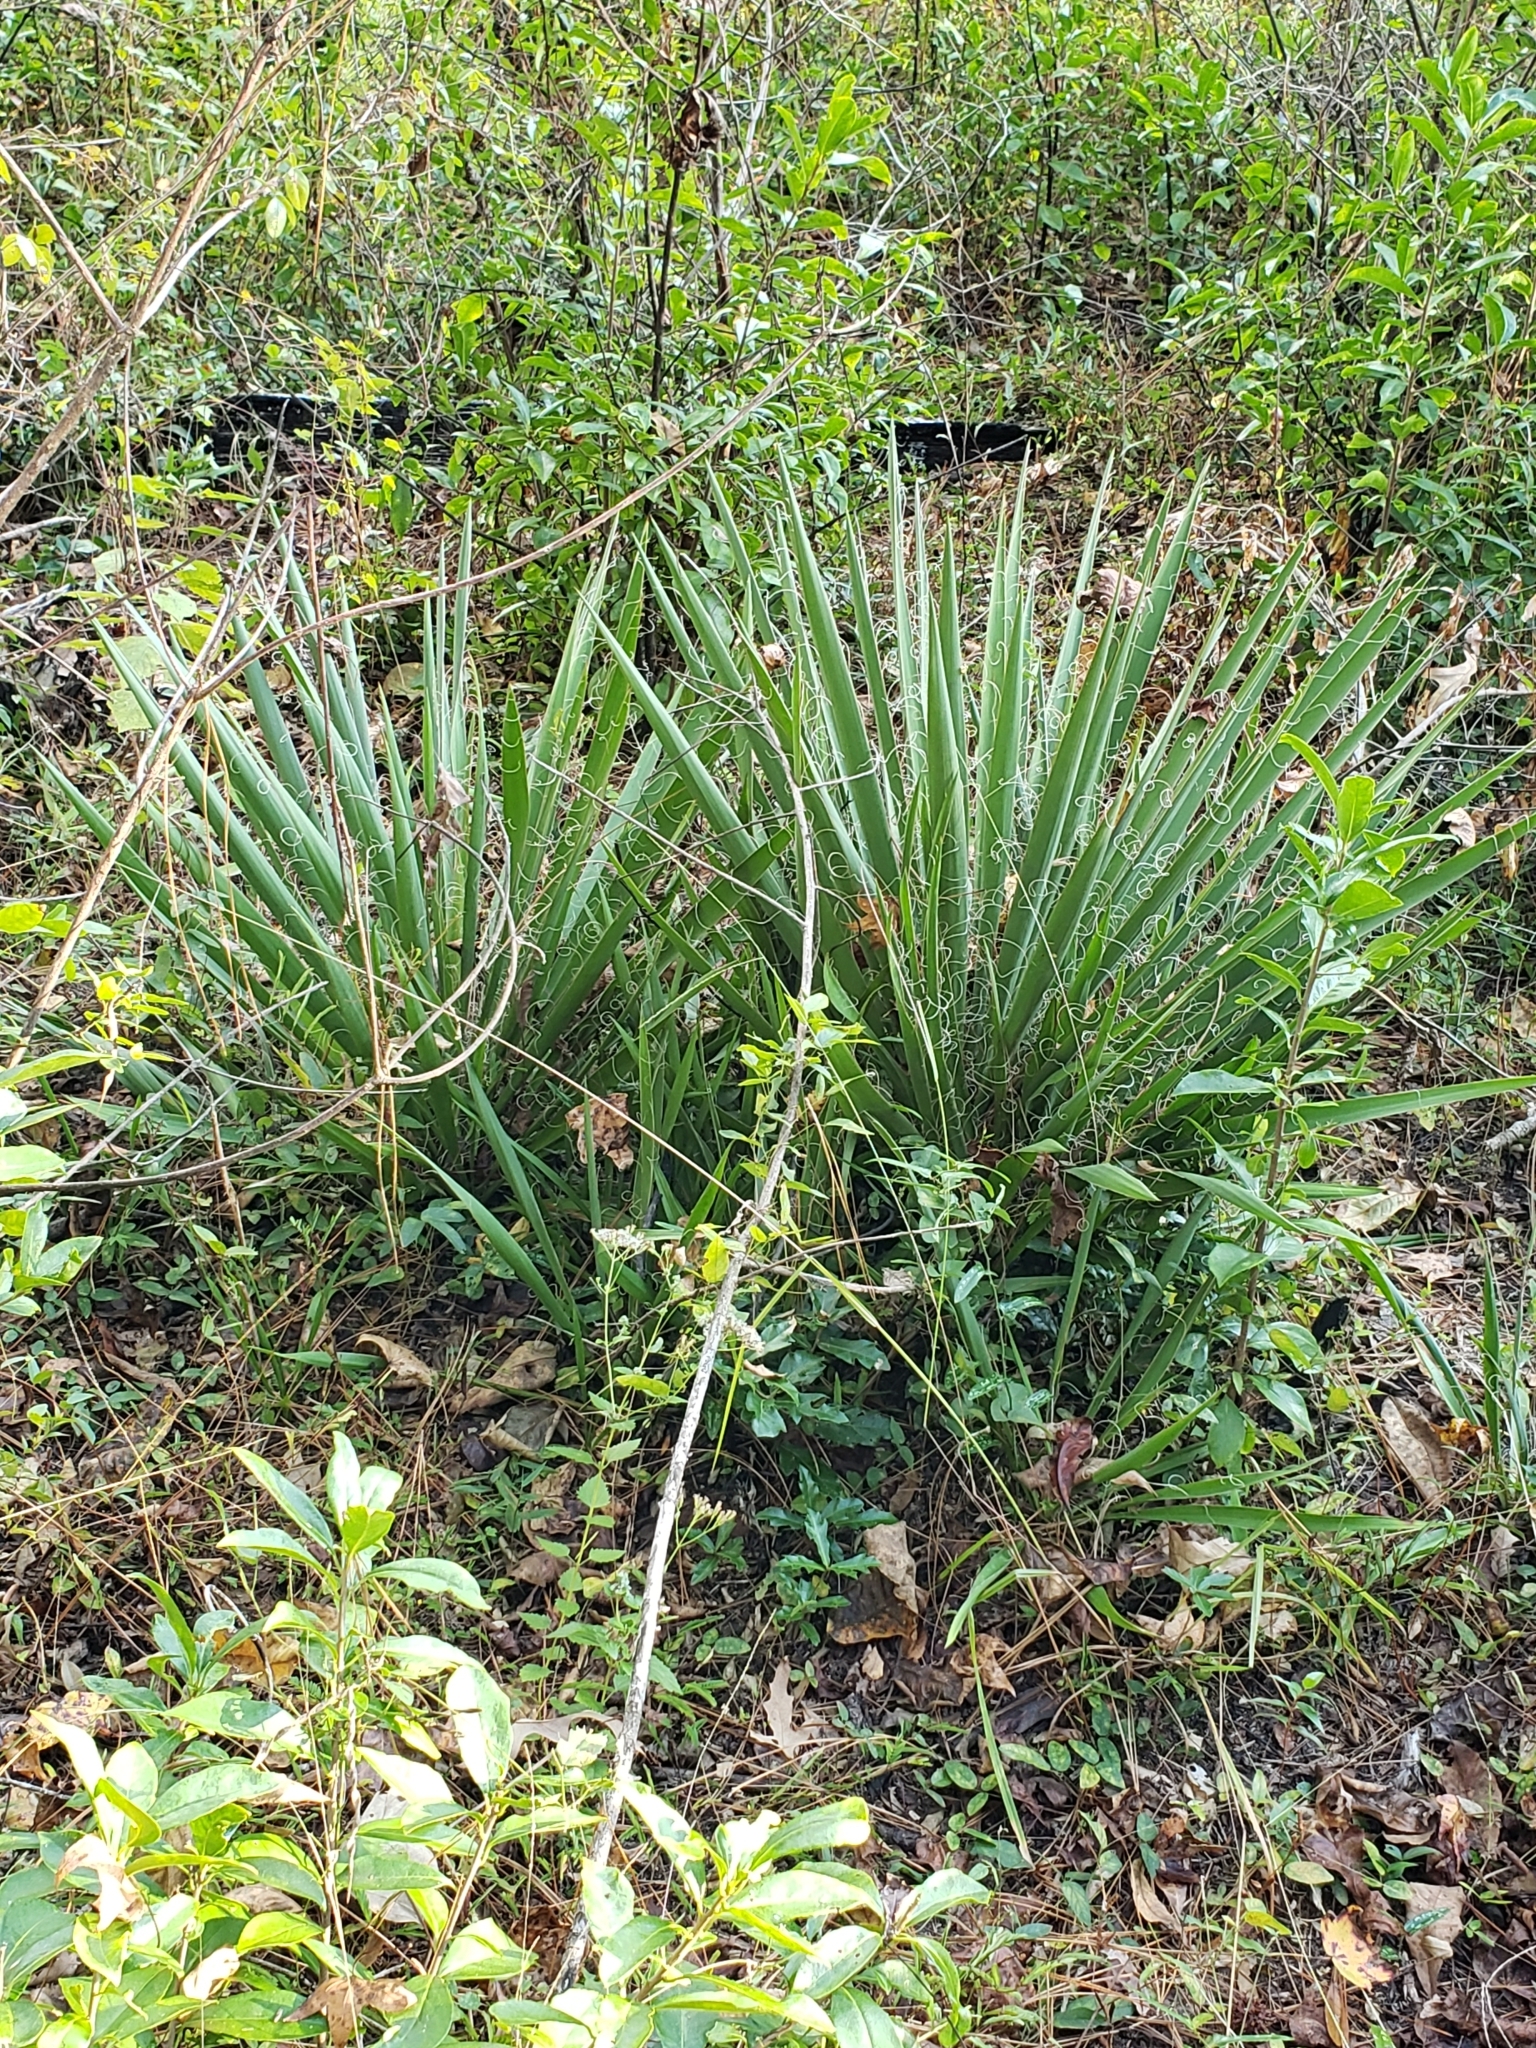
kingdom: Plantae
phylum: Tracheophyta
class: Liliopsida
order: Asparagales
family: Asparagaceae
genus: Yucca
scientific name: Yucca filamentosa
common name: Adam's-needle
